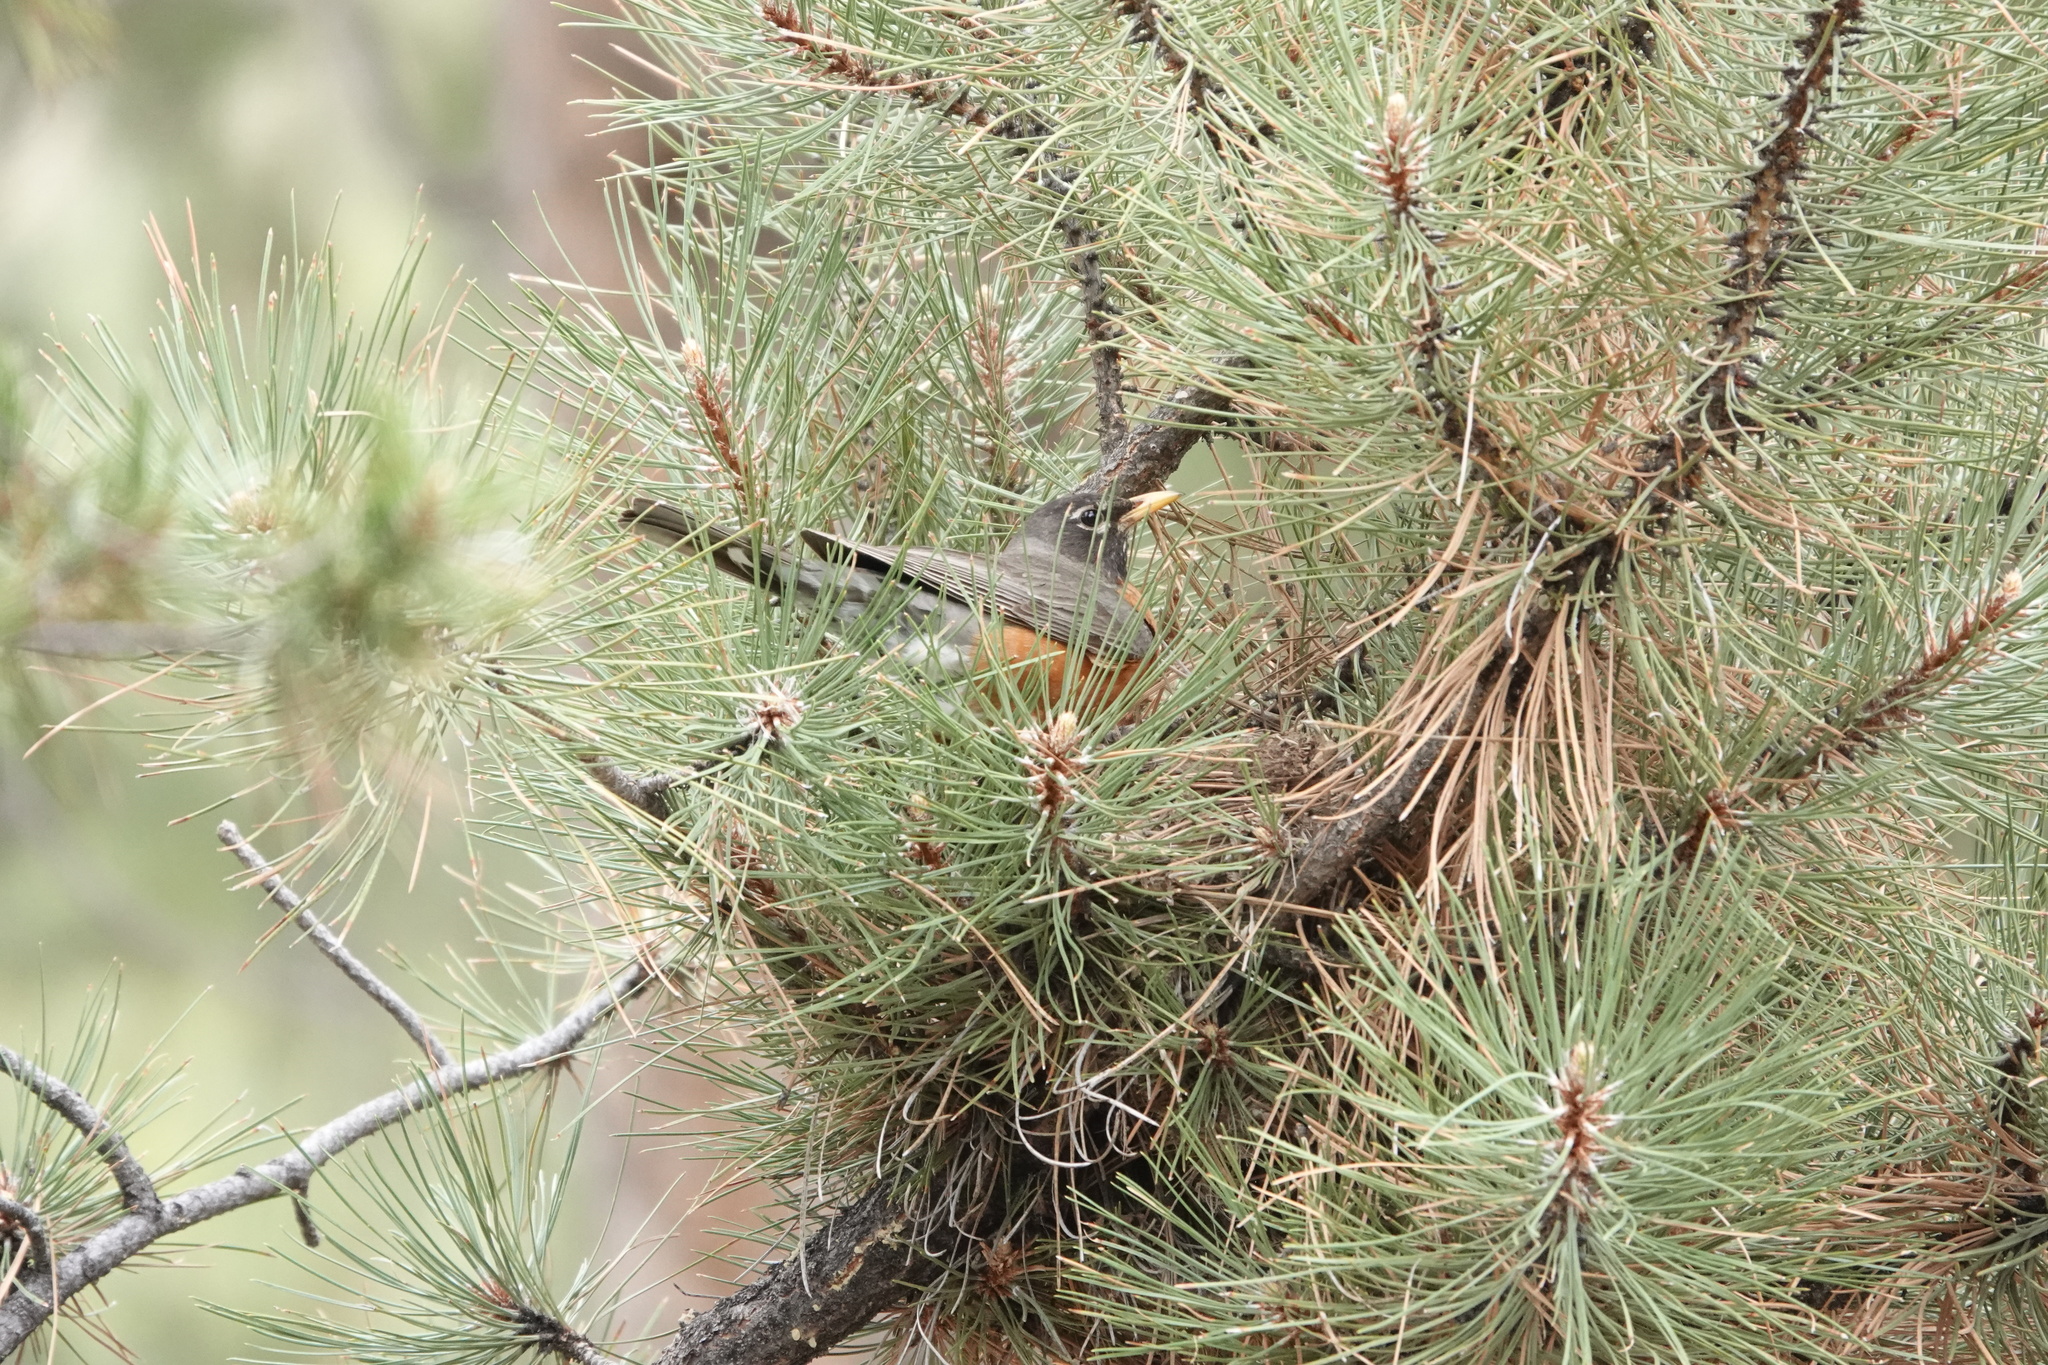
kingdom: Animalia
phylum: Chordata
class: Aves
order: Passeriformes
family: Turdidae
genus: Turdus
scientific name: Turdus migratorius
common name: American robin
